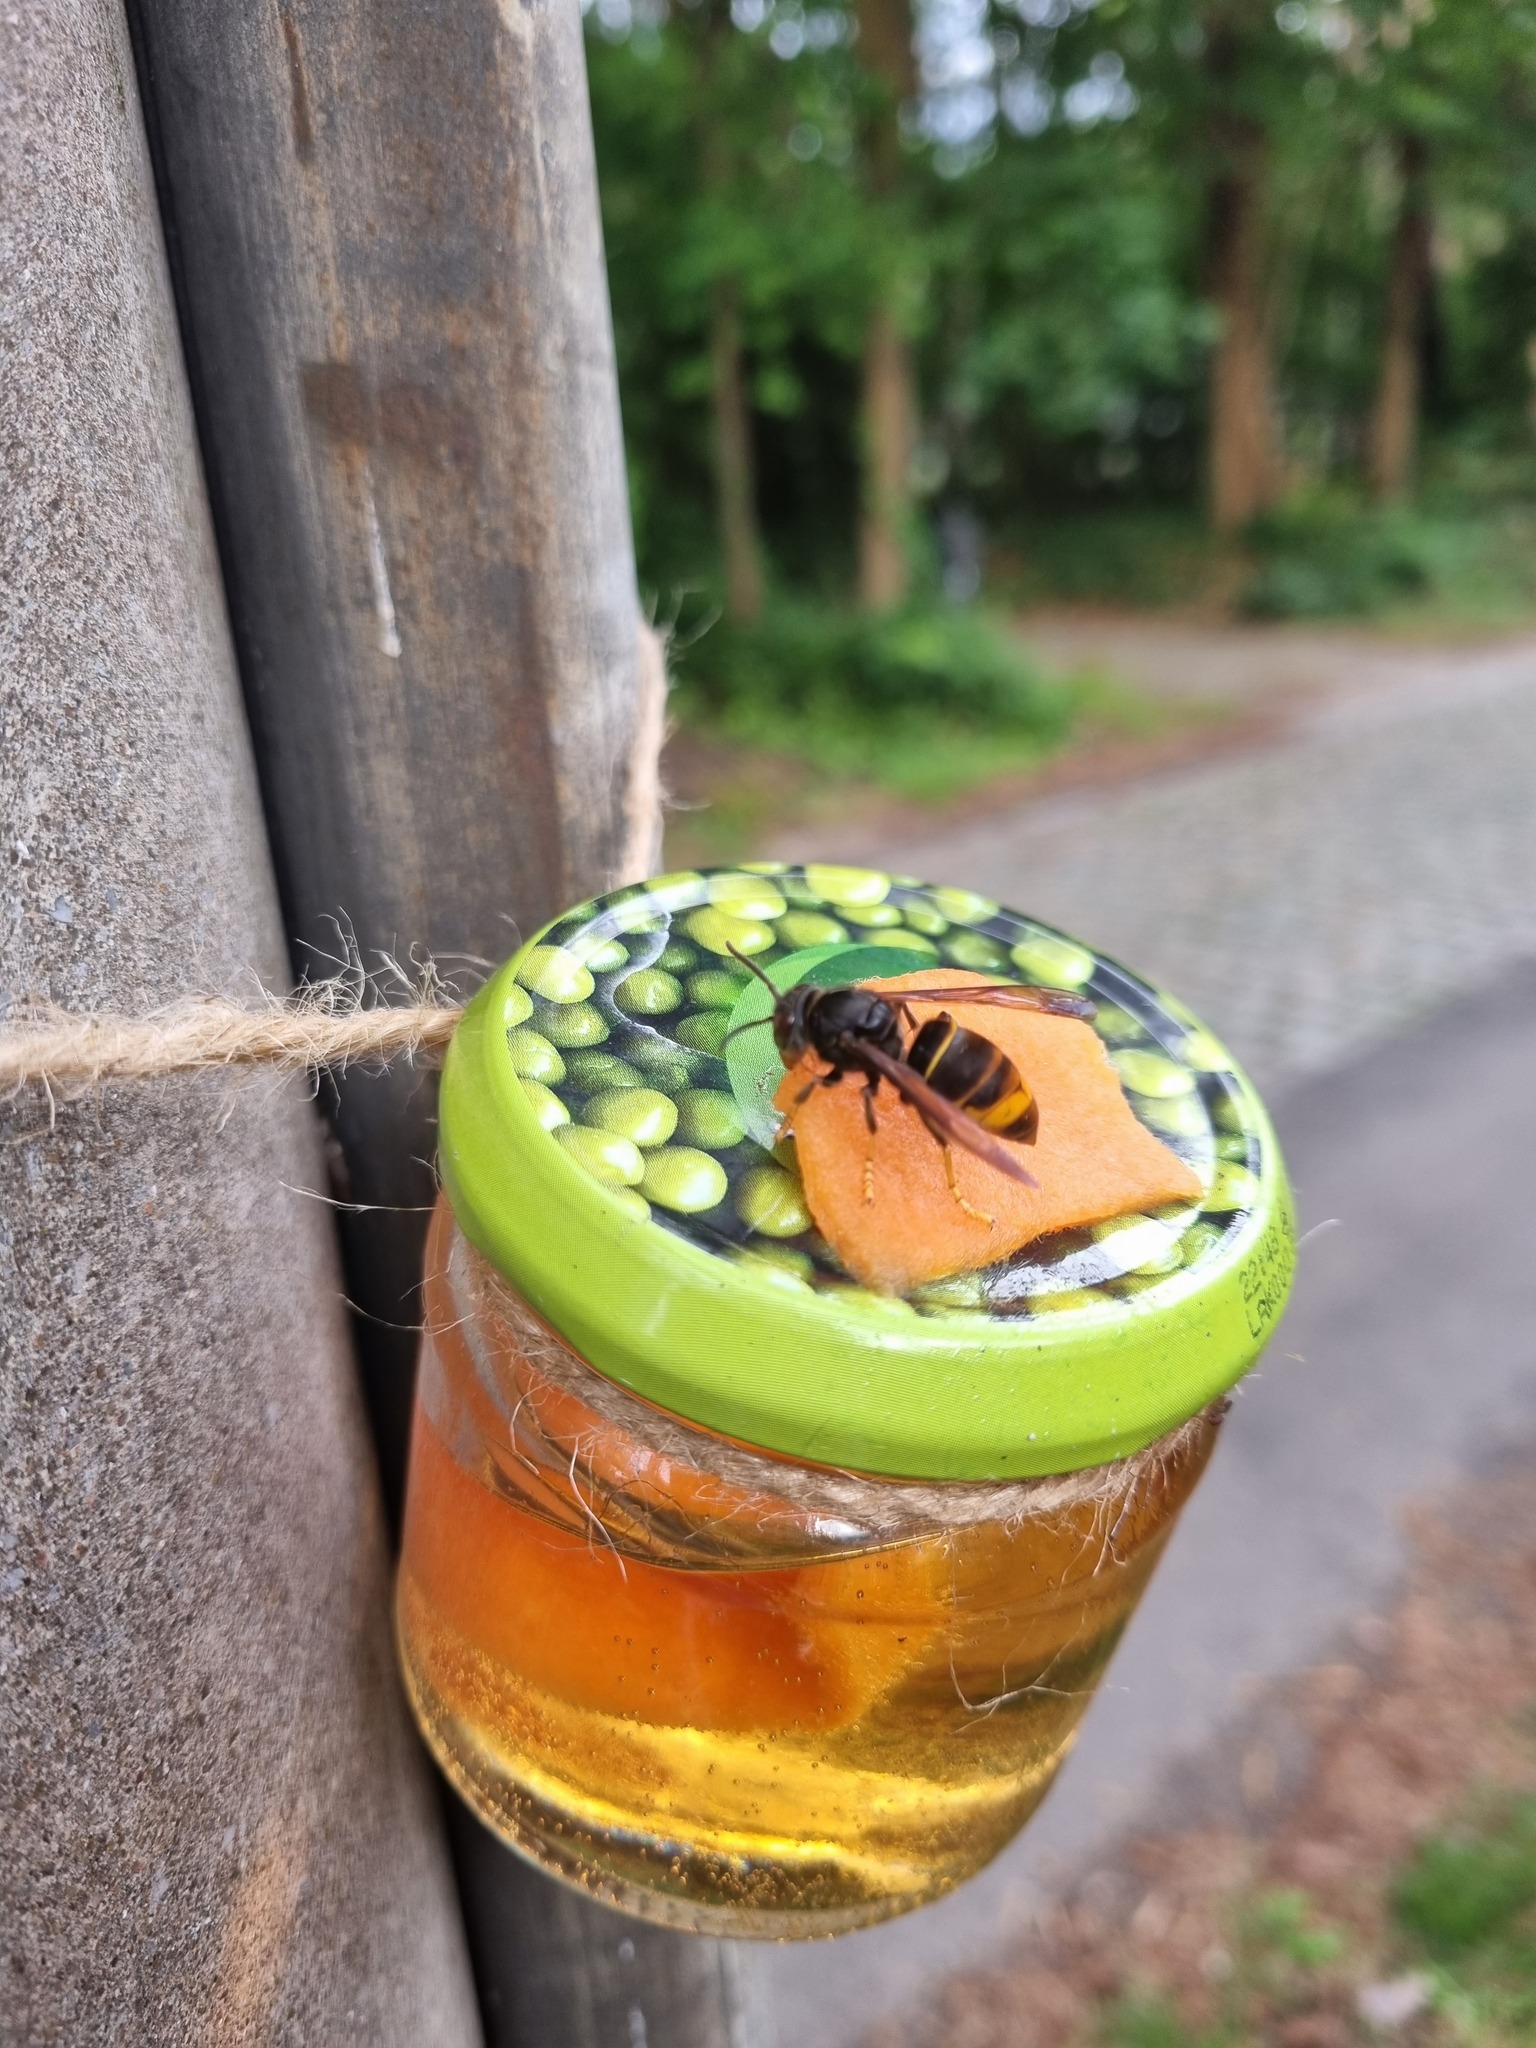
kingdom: Animalia
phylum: Arthropoda
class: Insecta
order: Hymenoptera
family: Vespidae
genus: Vespa
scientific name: Vespa velutina
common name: Asian hornet
